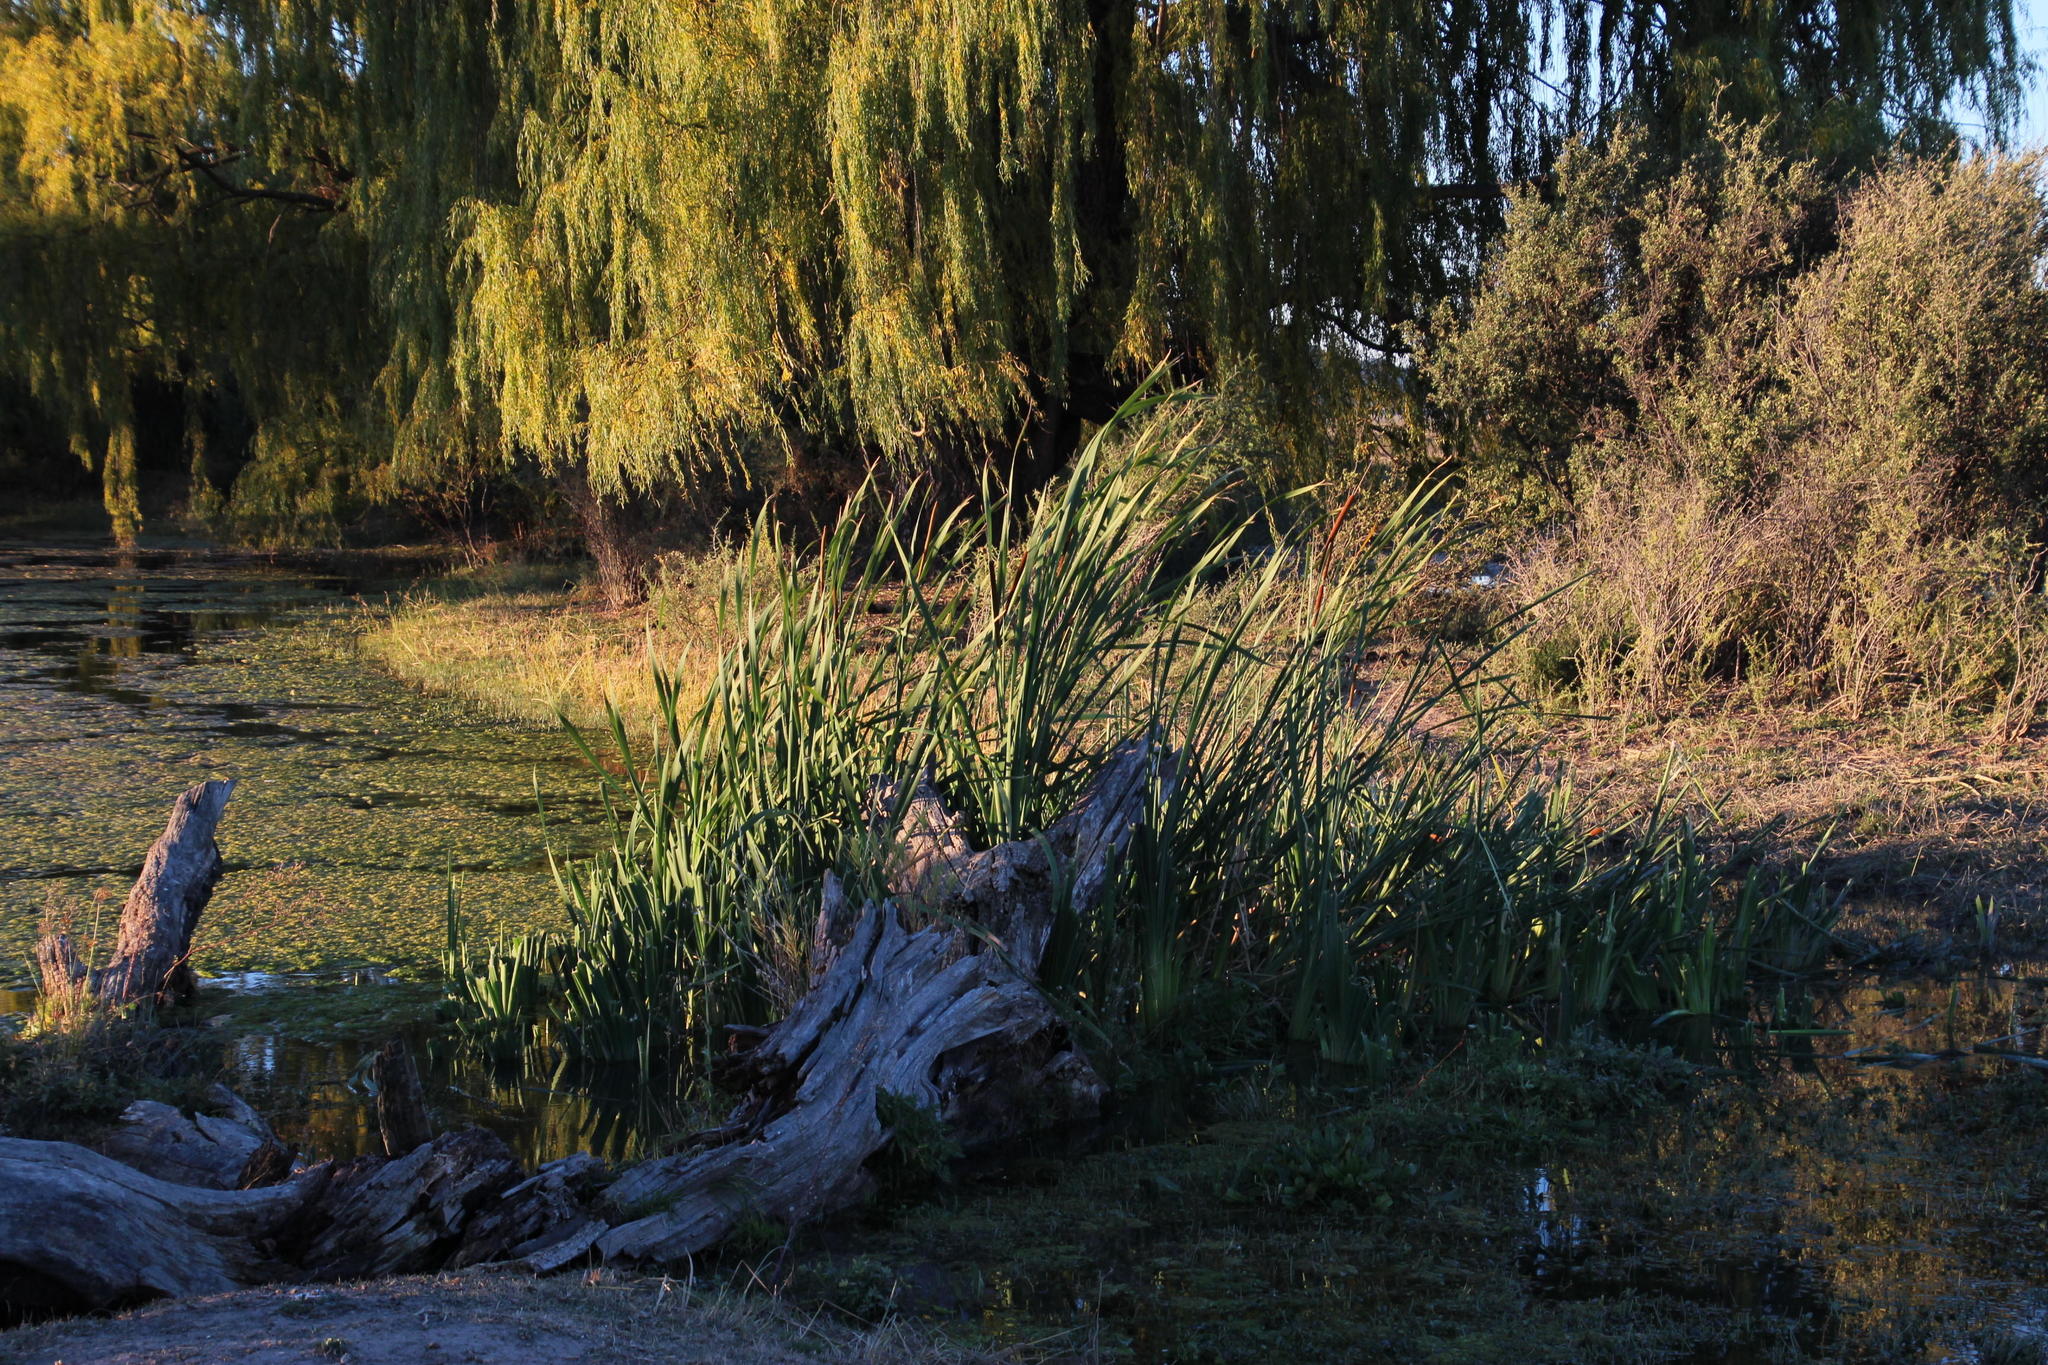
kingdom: Plantae
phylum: Tracheophyta
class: Liliopsida
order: Poales
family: Typhaceae
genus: Typha
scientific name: Typha capensis
